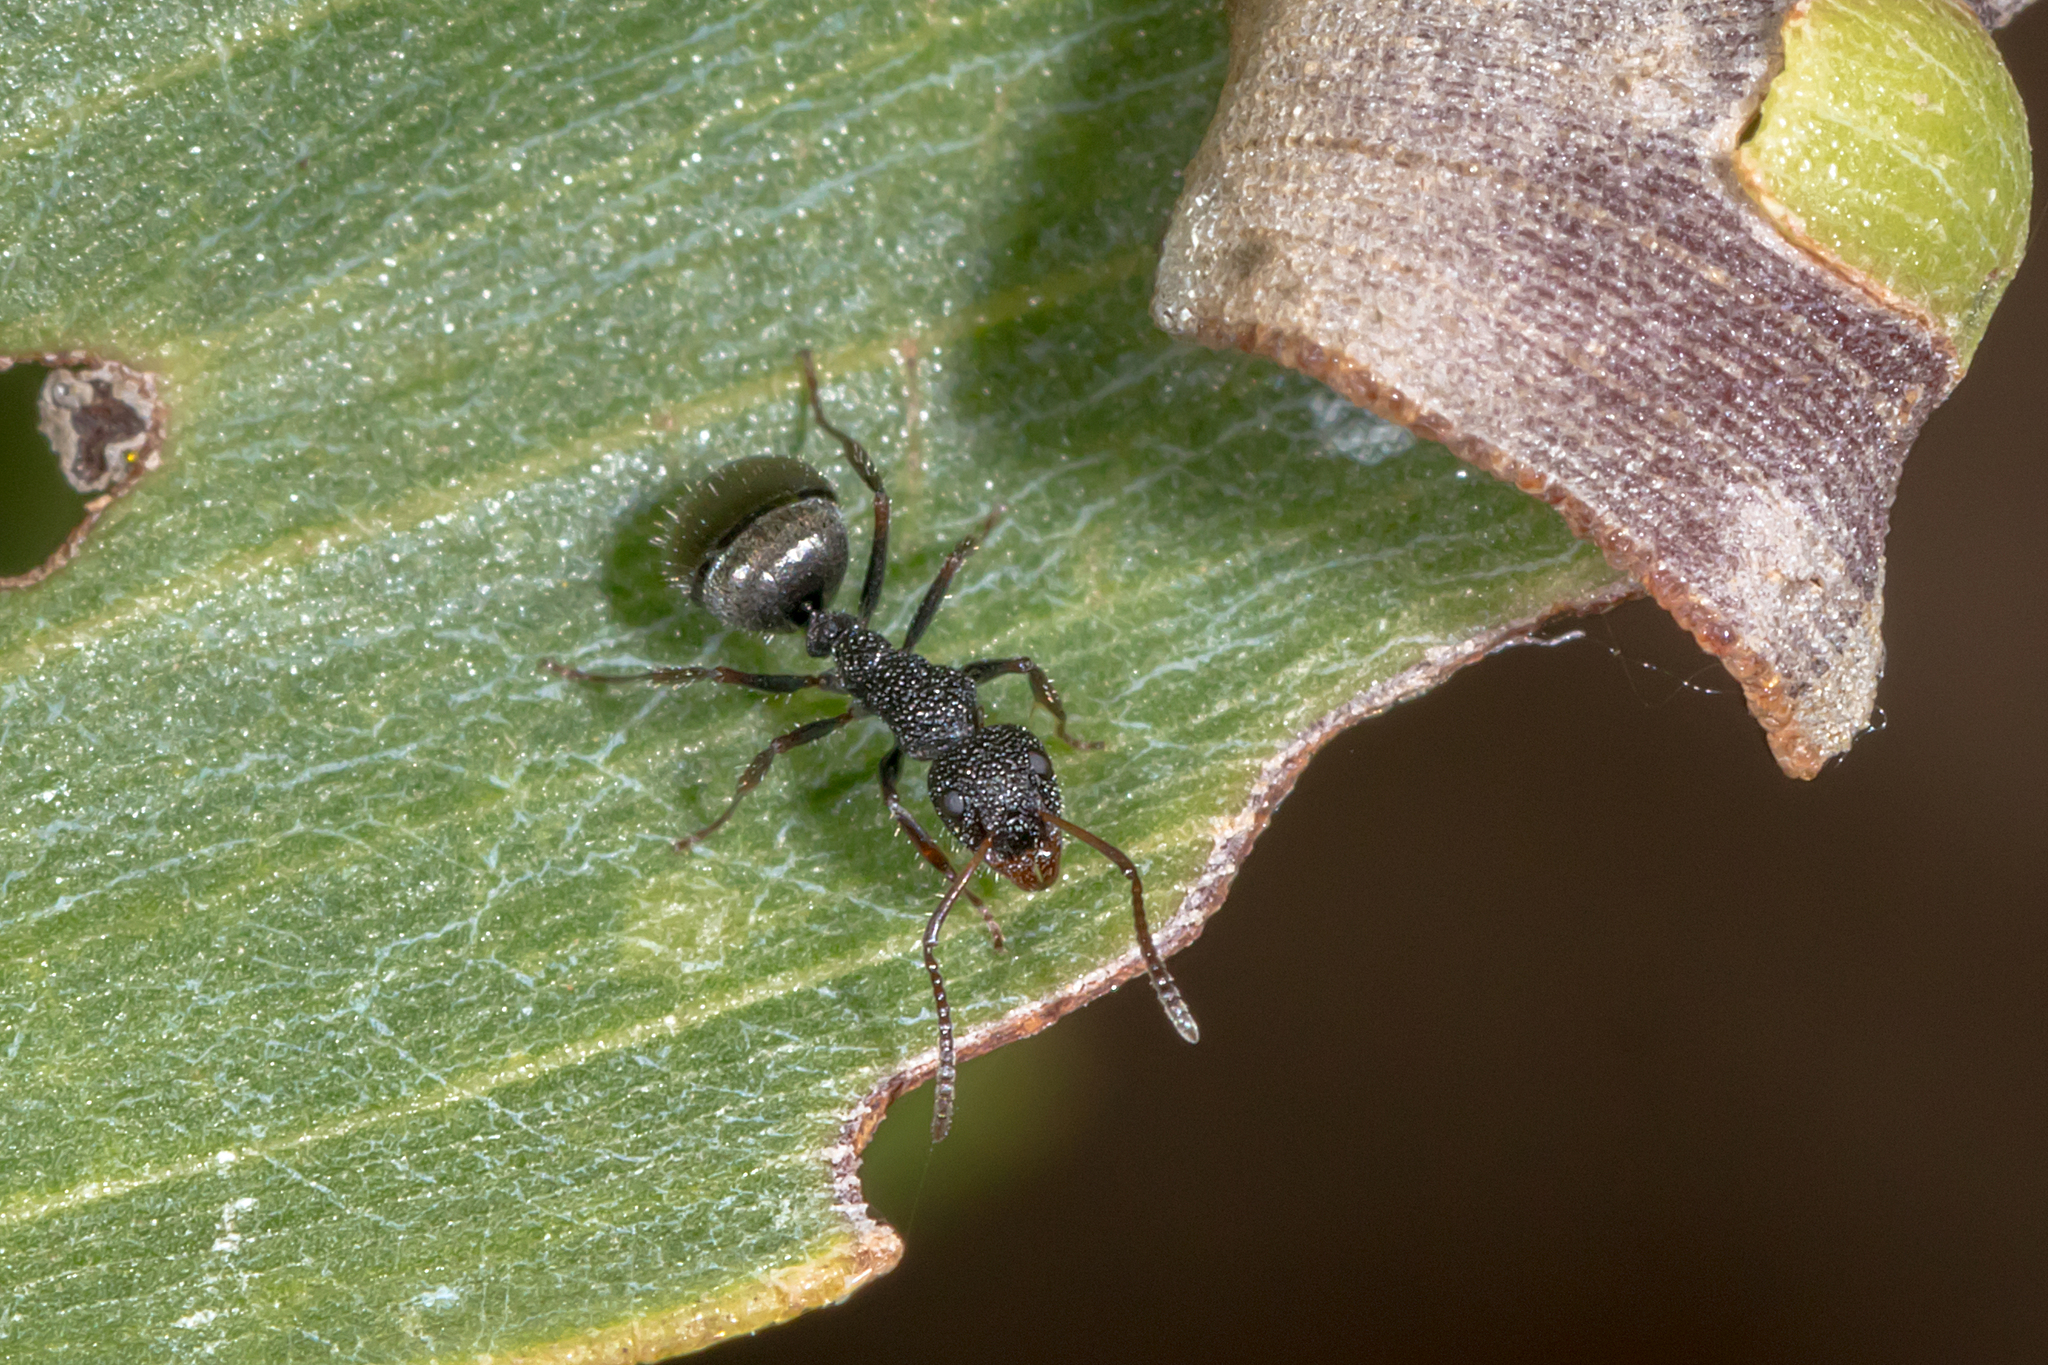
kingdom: Animalia
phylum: Arthropoda
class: Insecta
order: Hymenoptera
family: Formicidae
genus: Dolichoderus
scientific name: Dolichoderus scrobiculatus
